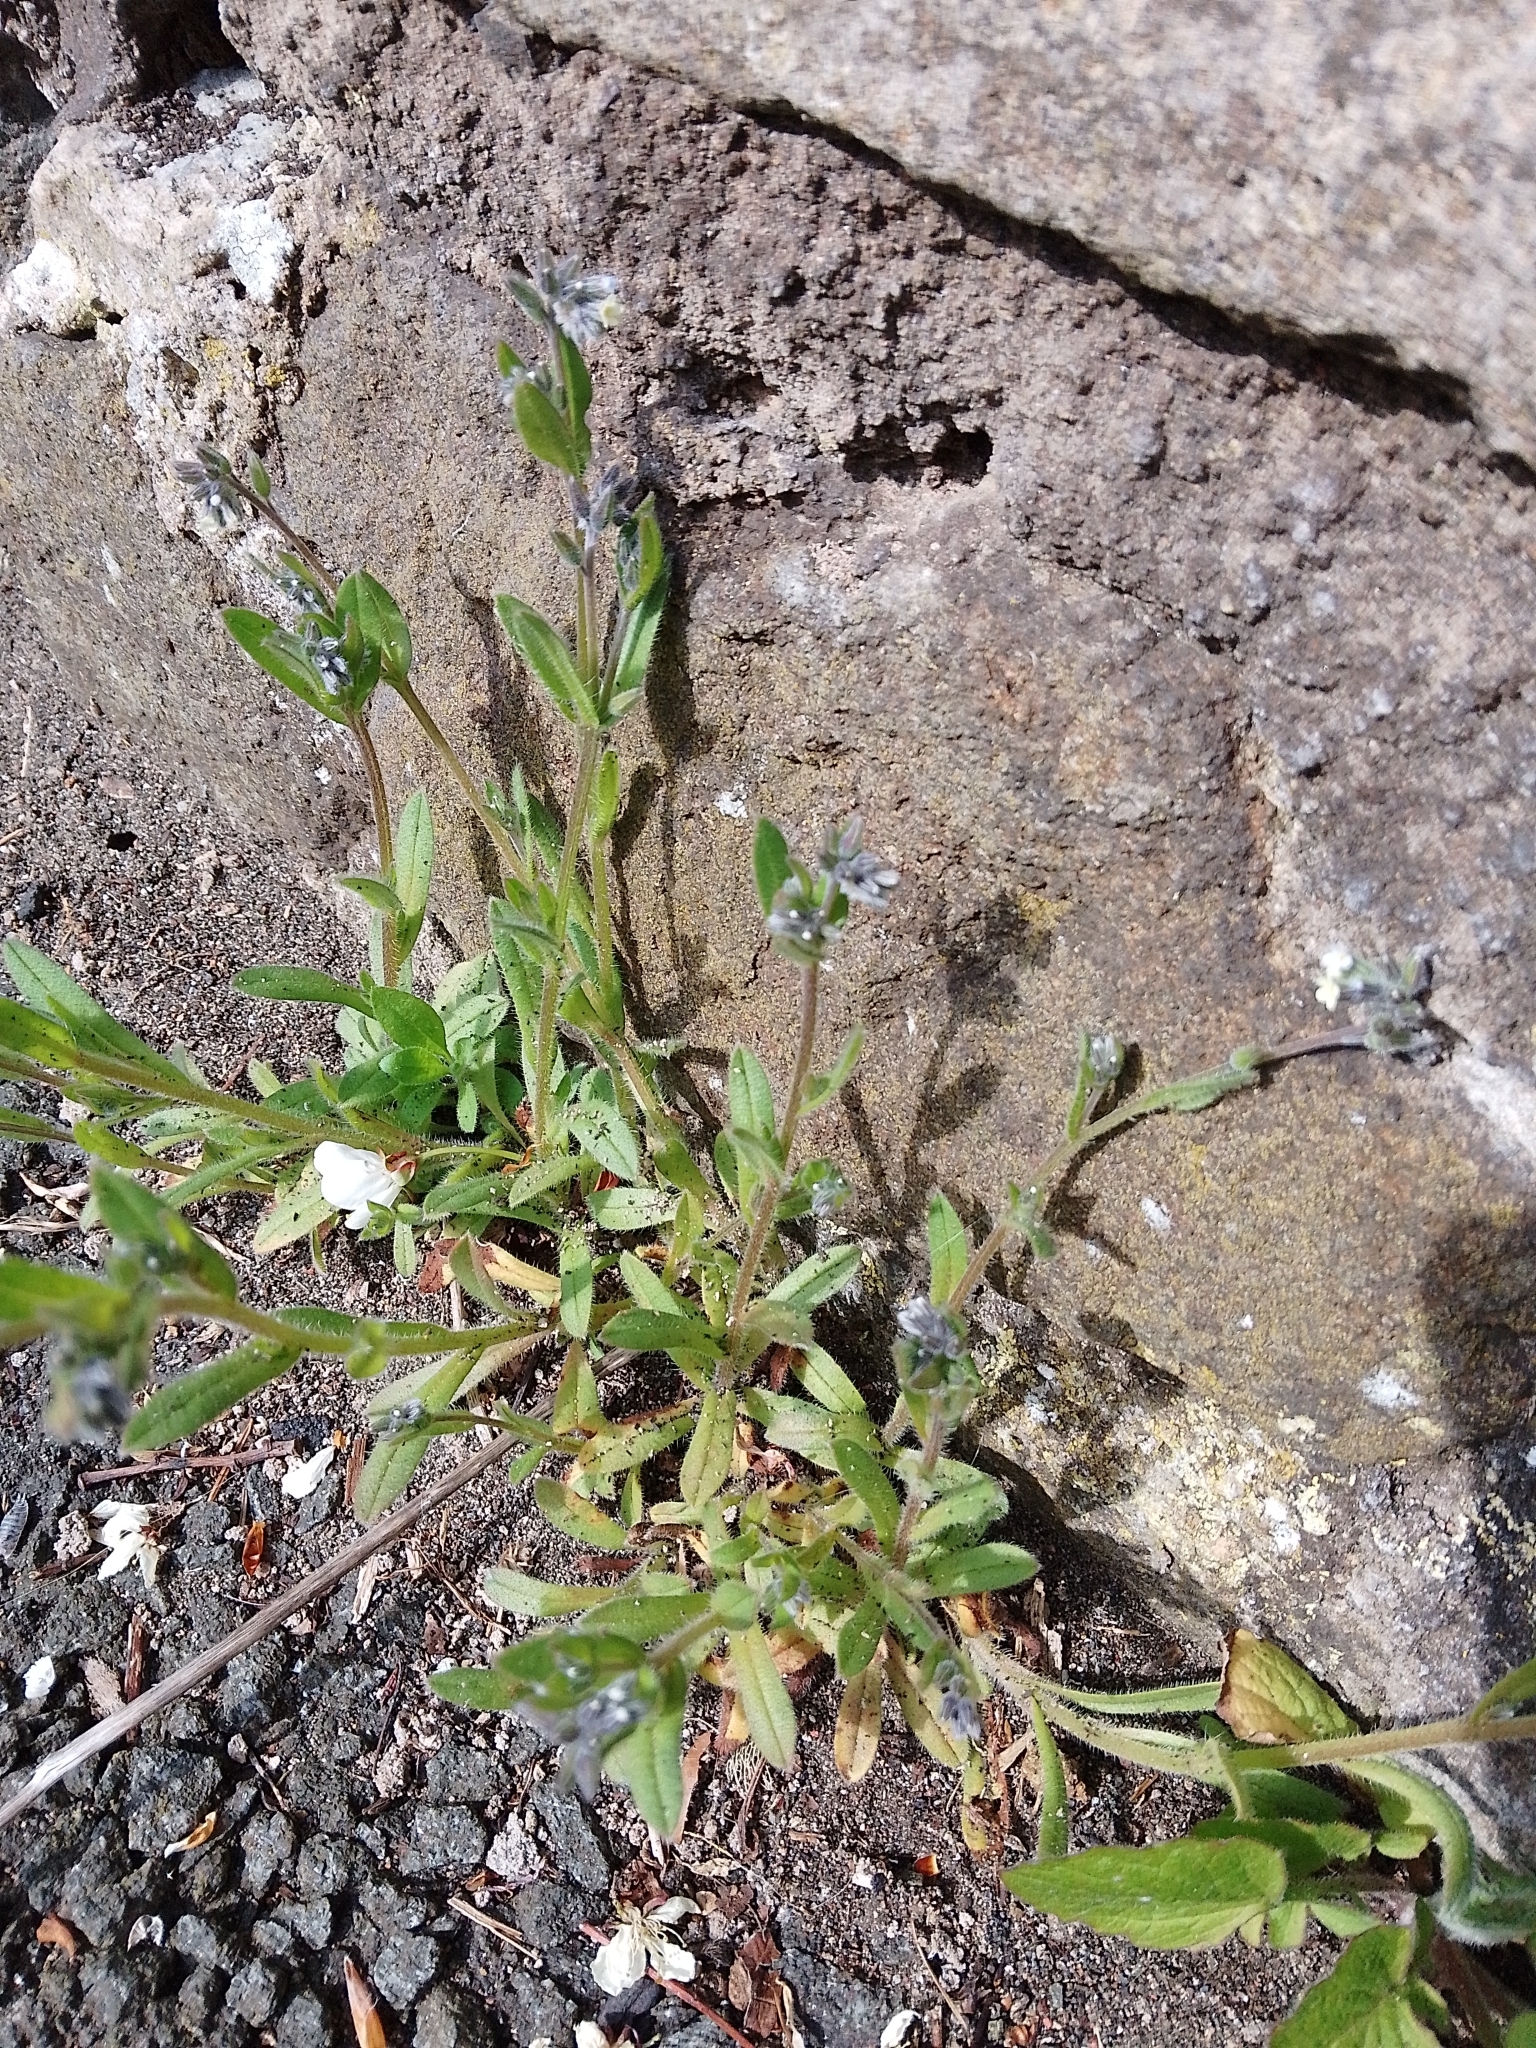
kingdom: Plantae
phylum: Tracheophyta
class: Magnoliopsida
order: Boraginales
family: Boraginaceae
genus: Myosotis
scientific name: Myosotis discolor
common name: Changing forget-me-not
